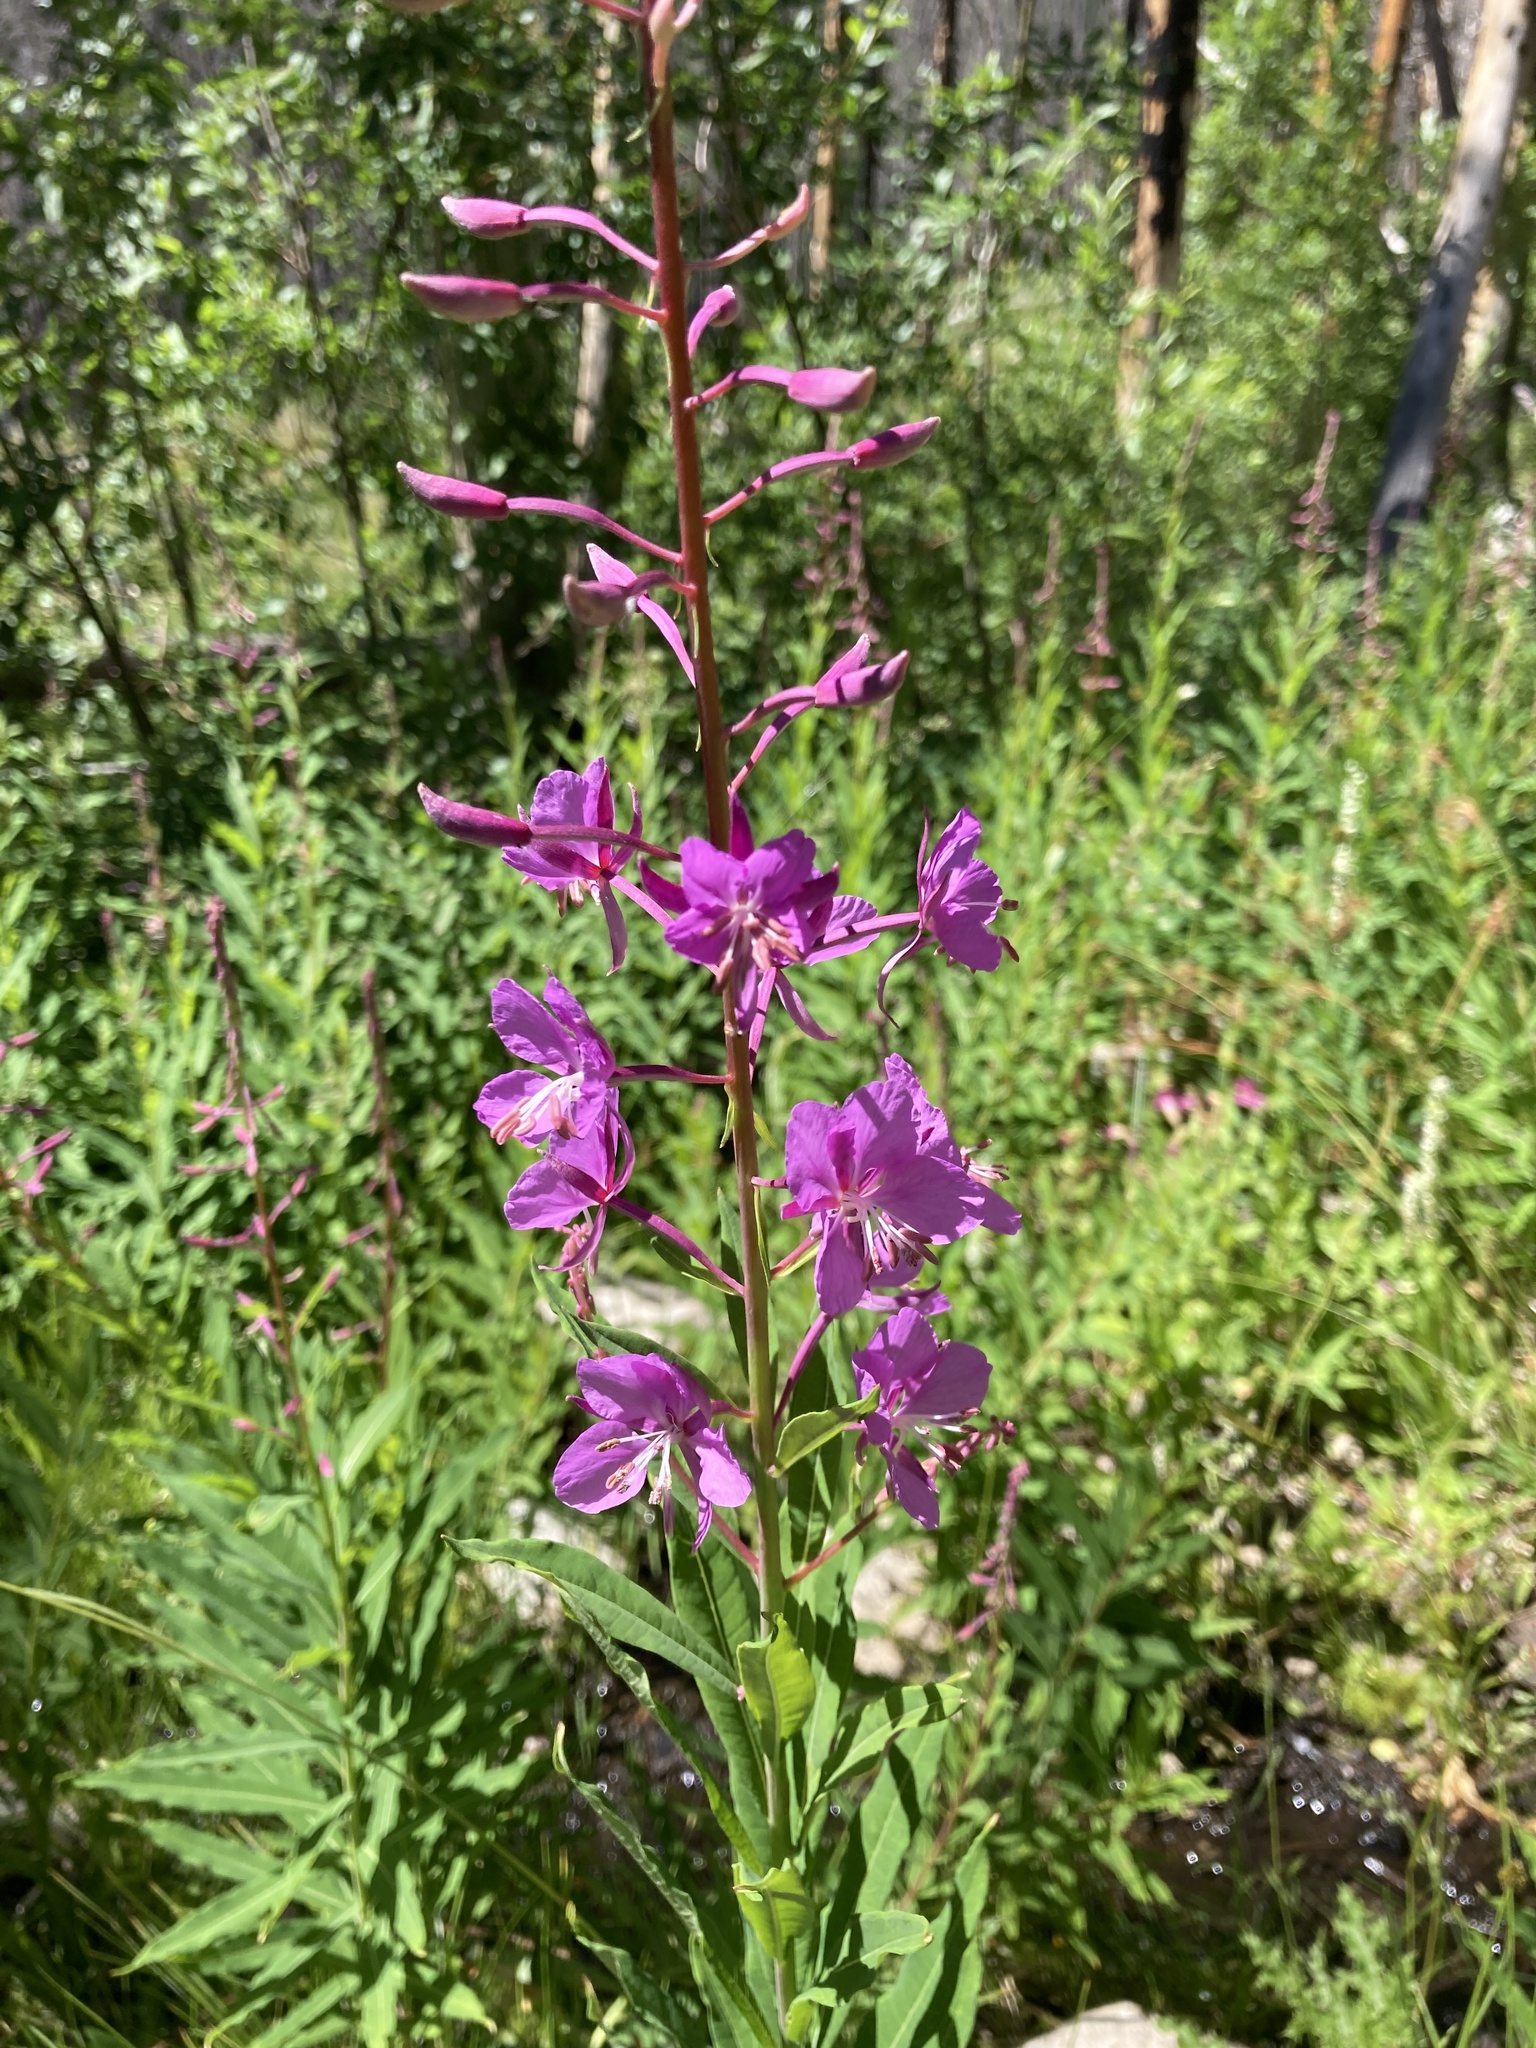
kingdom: Plantae
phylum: Tracheophyta
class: Magnoliopsida
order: Myrtales
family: Onagraceae
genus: Chamaenerion
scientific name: Chamaenerion angustifolium
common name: Fireweed
